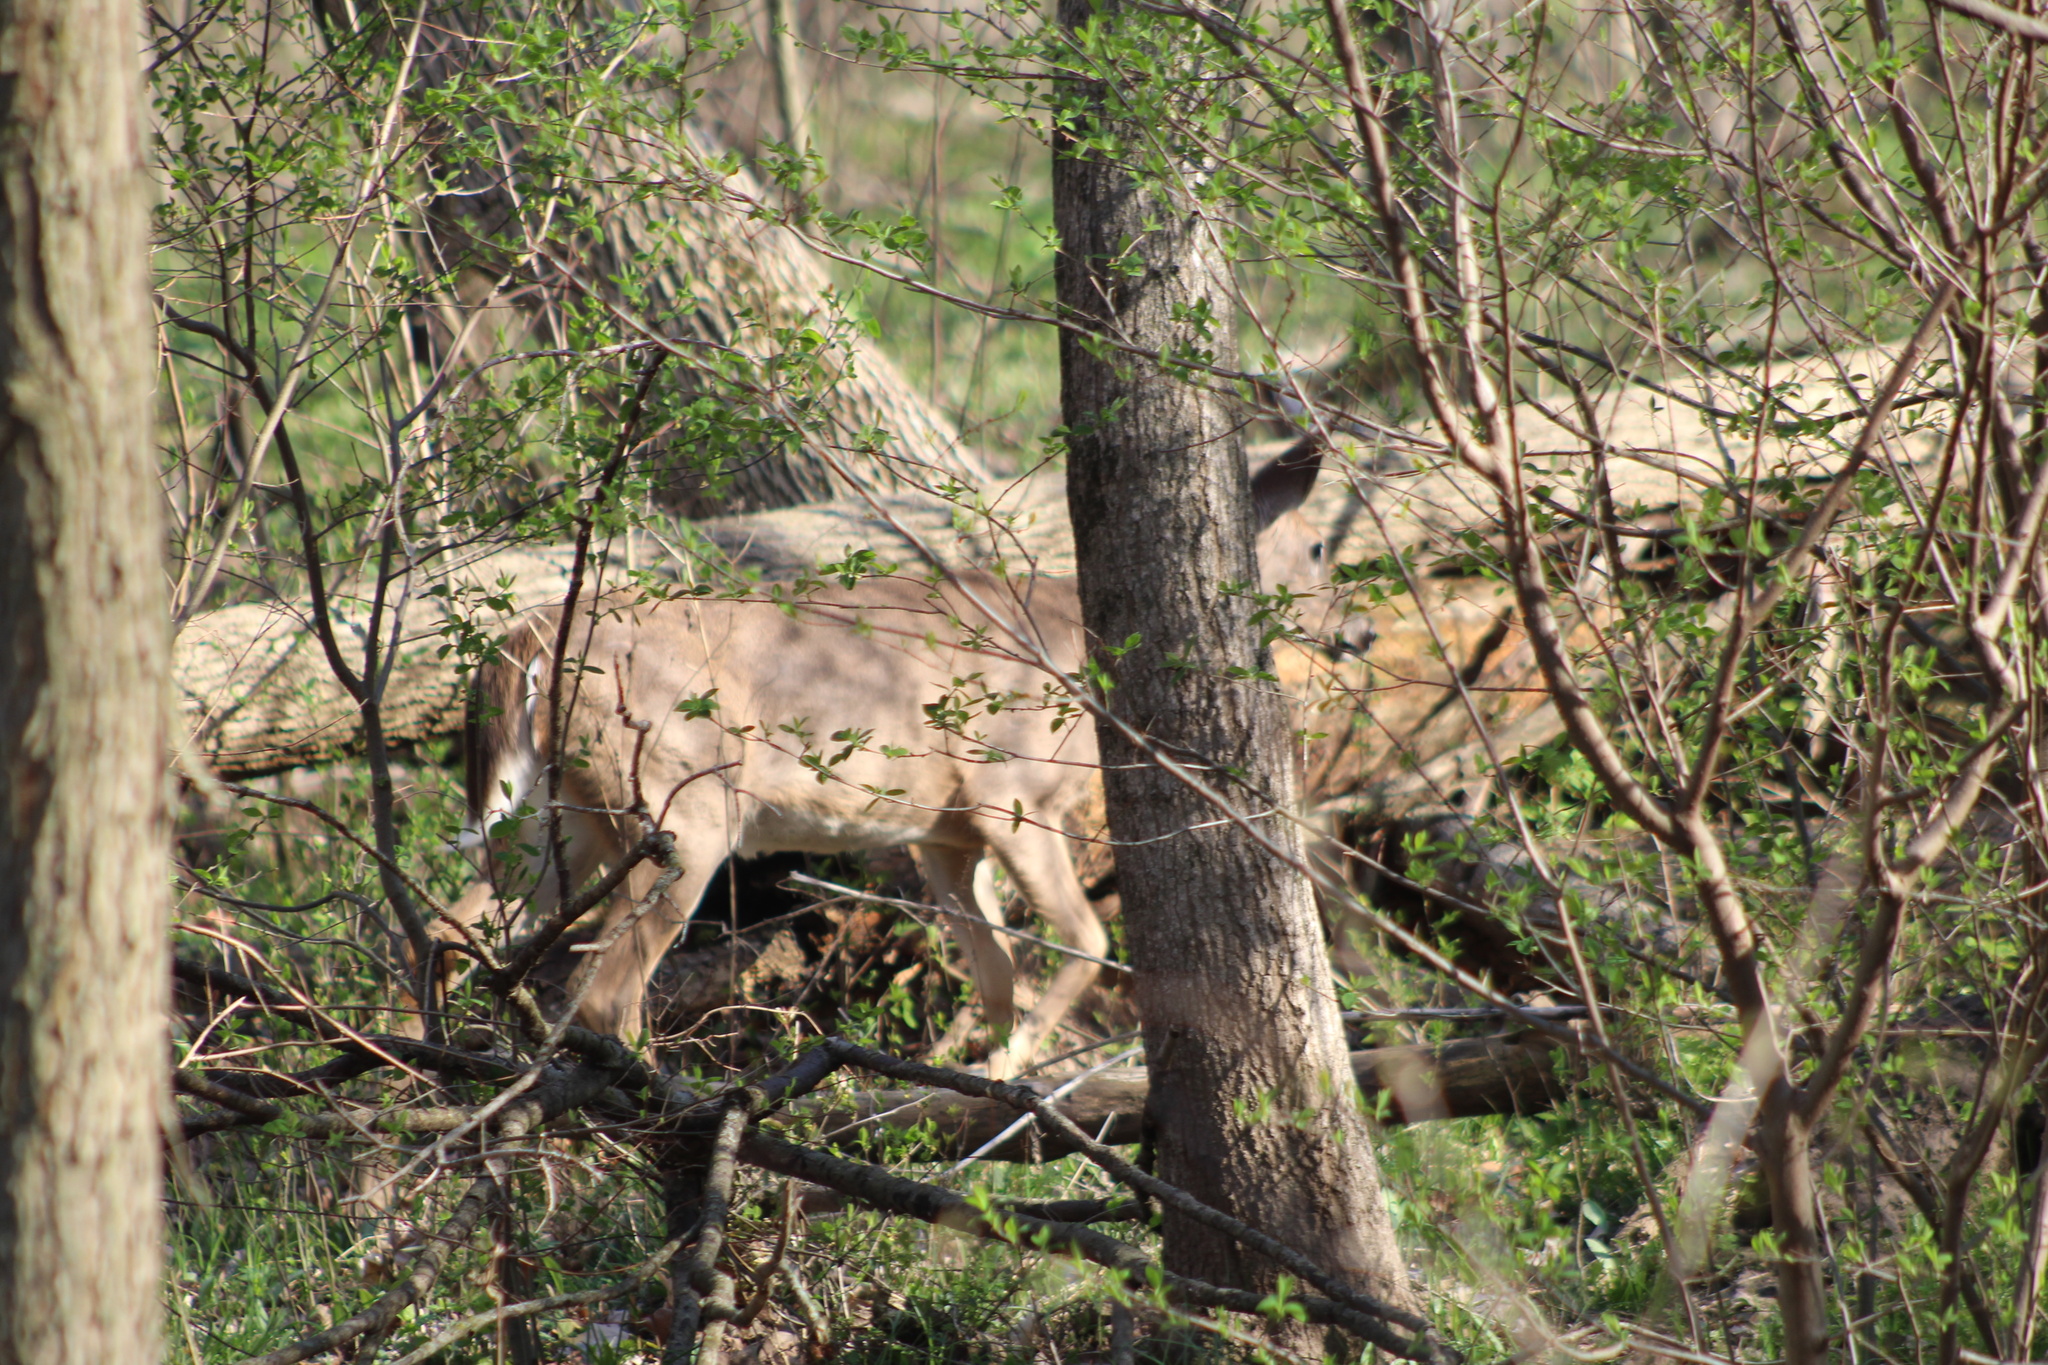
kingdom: Animalia
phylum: Chordata
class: Mammalia
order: Artiodactyla
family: Cervidae
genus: Odocoileus
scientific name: Odocoileus virginianus
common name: White-tailed deer
